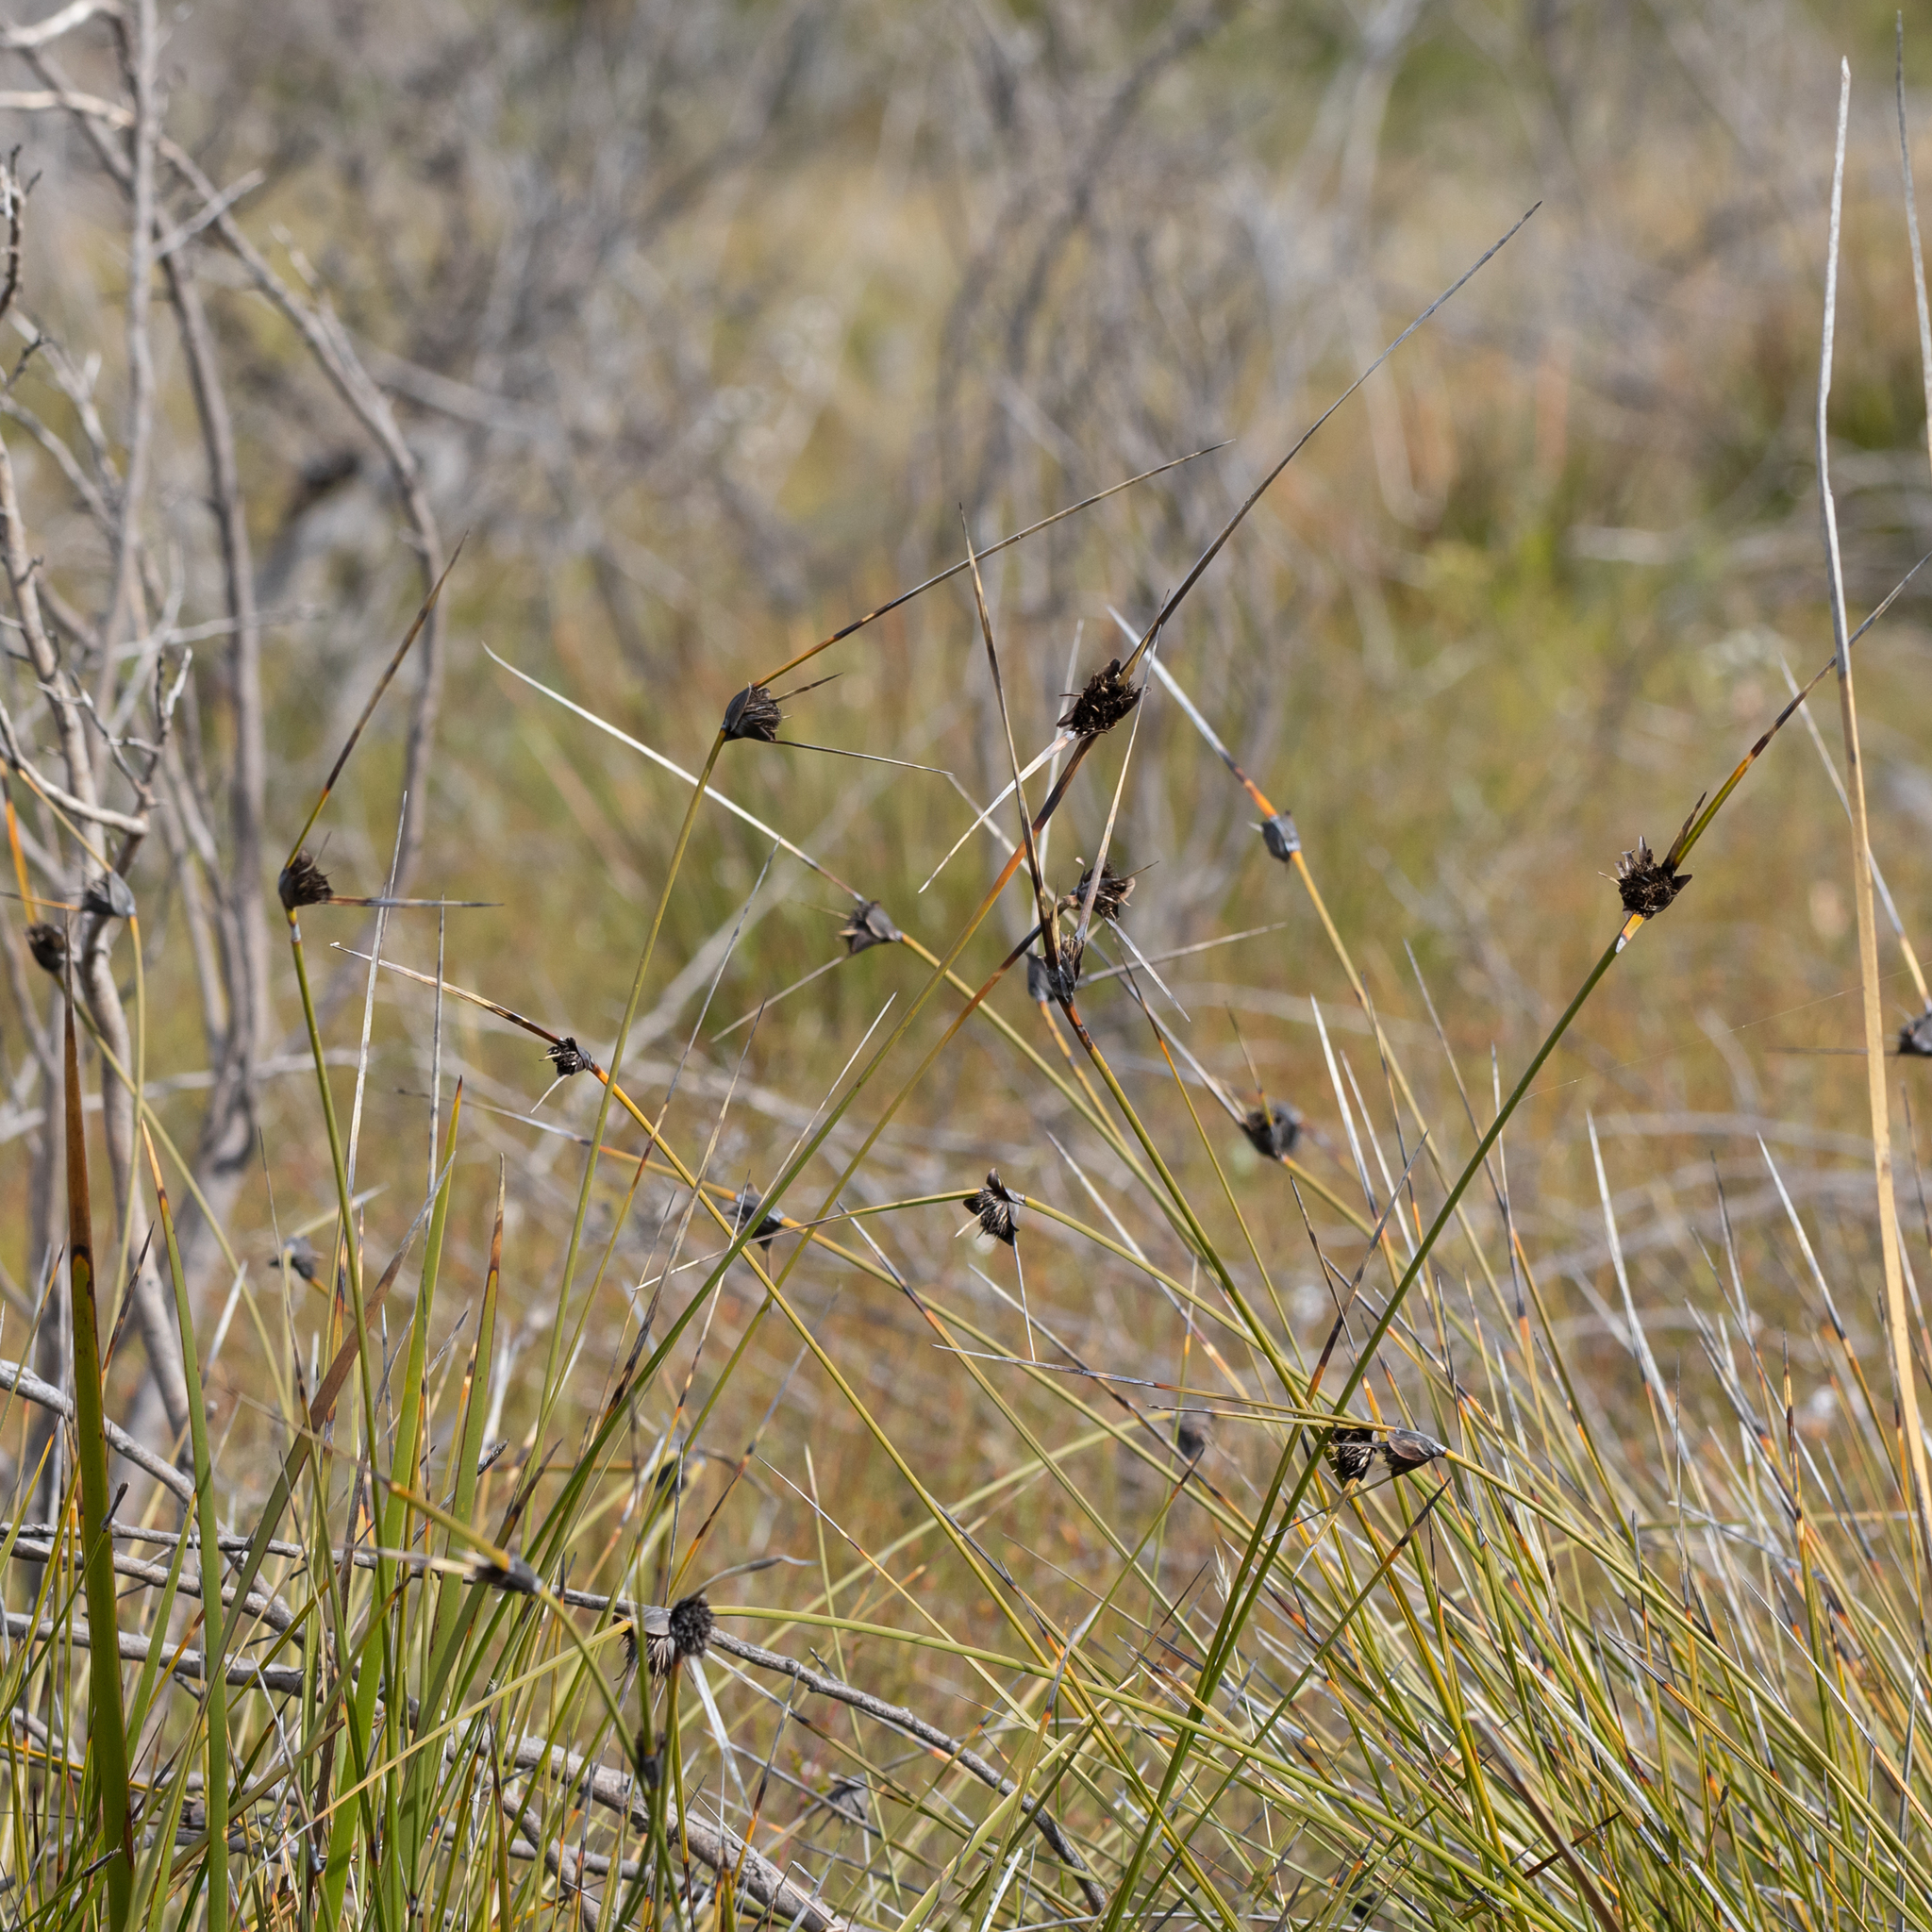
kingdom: Plantae
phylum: Tracheophyta
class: Liliopsida
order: Poales
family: Cyperaceae
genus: Mesomelaena
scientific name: Mesomelaena tetragona
